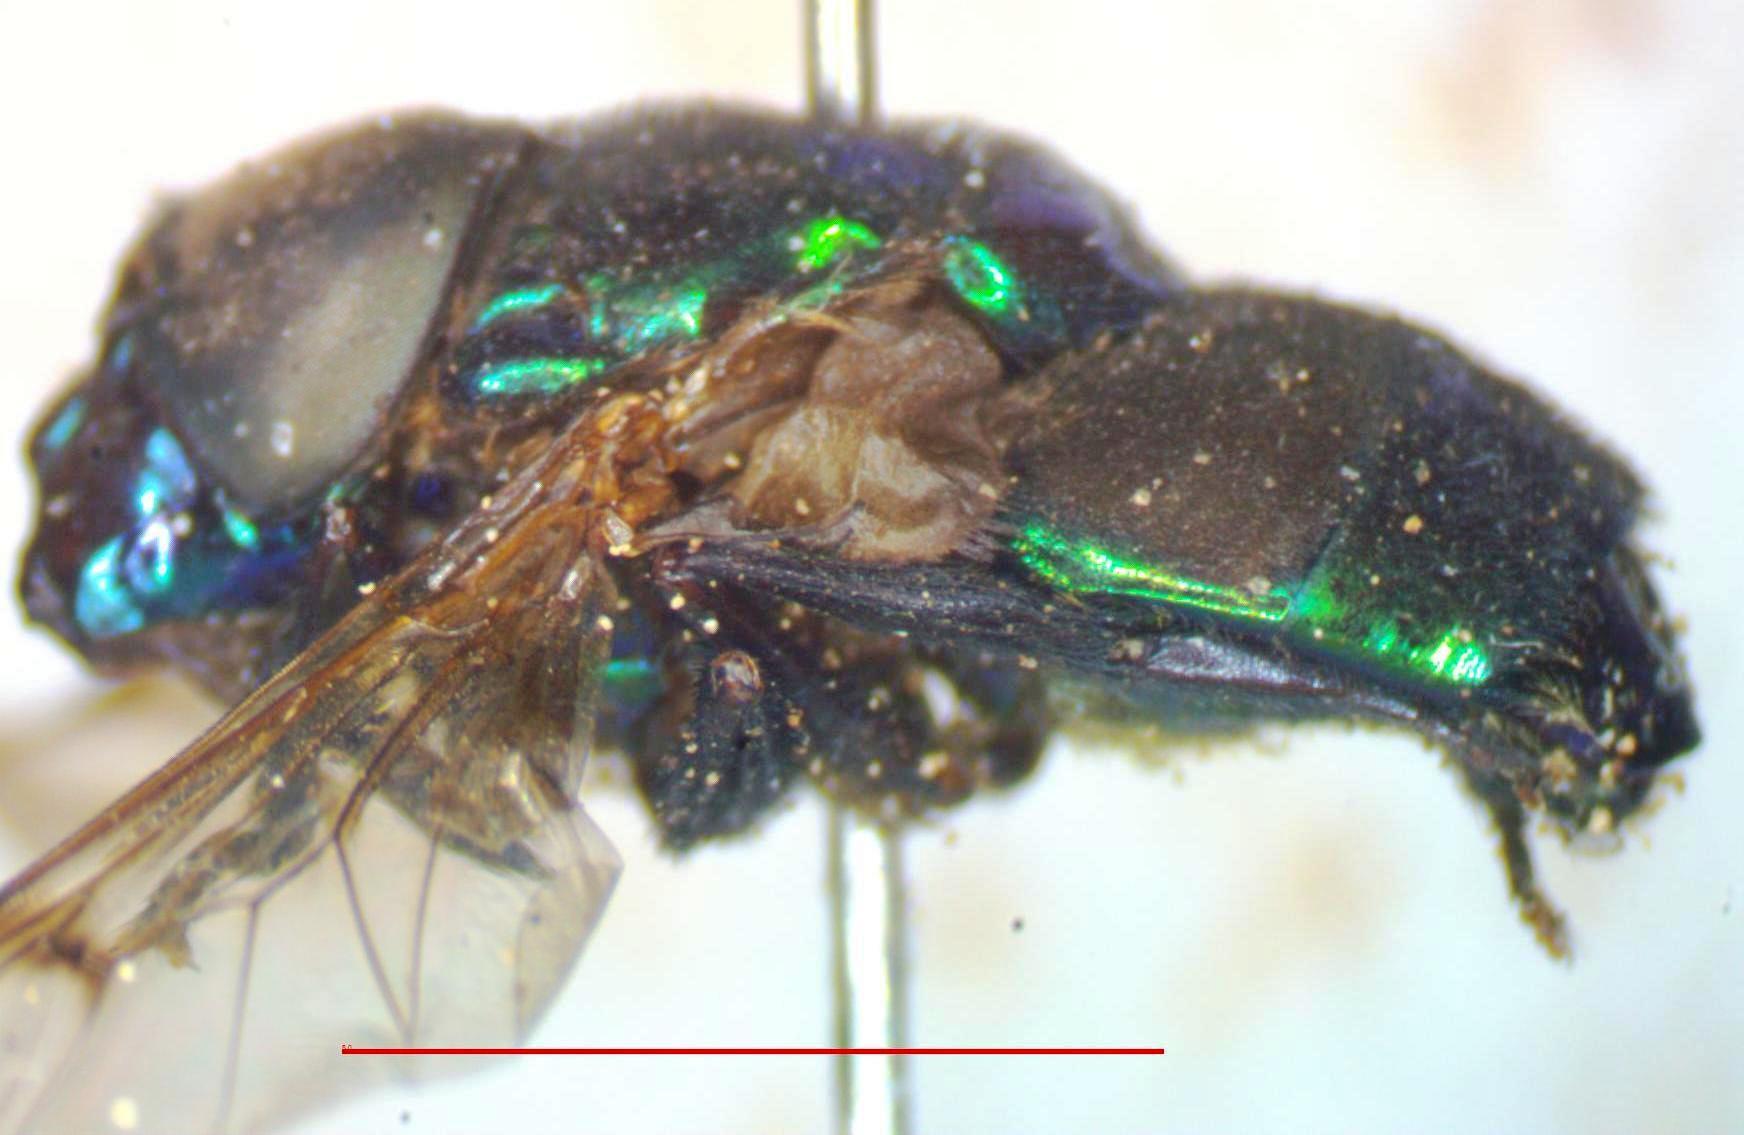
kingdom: Animalia
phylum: Arthropoda
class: Insecta
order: Diptera
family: Syrphidae
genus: Ornidia
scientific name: Ornidia obesa
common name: Syrphid fly
